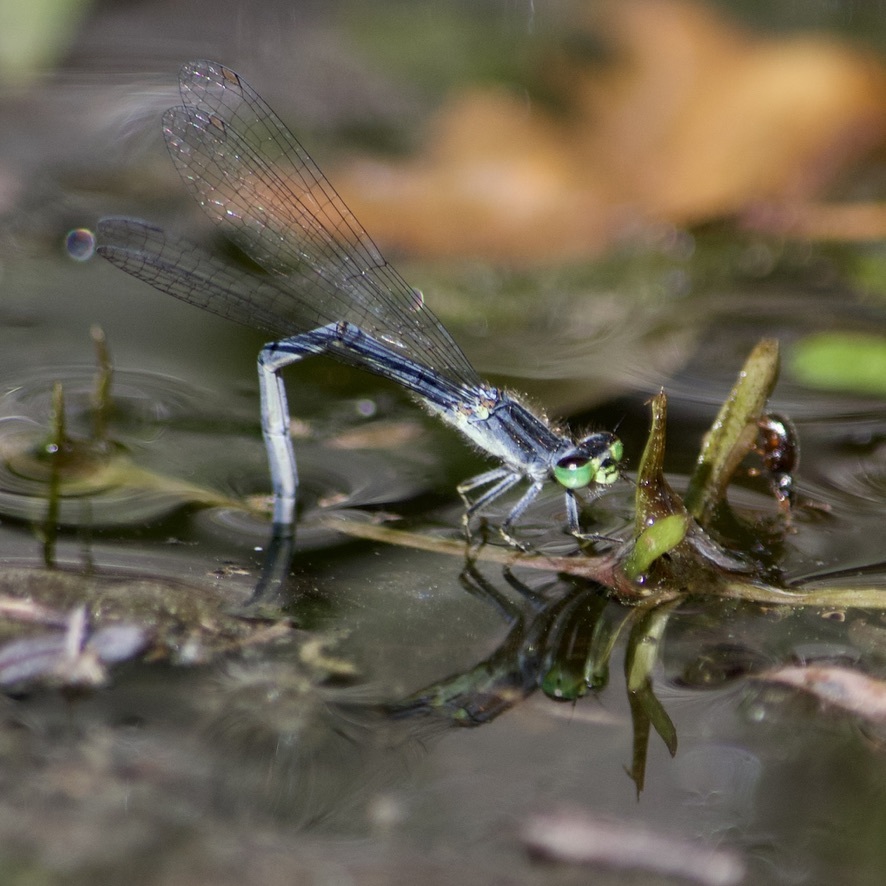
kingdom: Animalia
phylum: Arthropoda
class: Insecta
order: Odonata
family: Coenagrionidae
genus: Ischnura
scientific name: Ischnura verticalis
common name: Eastern forktail
